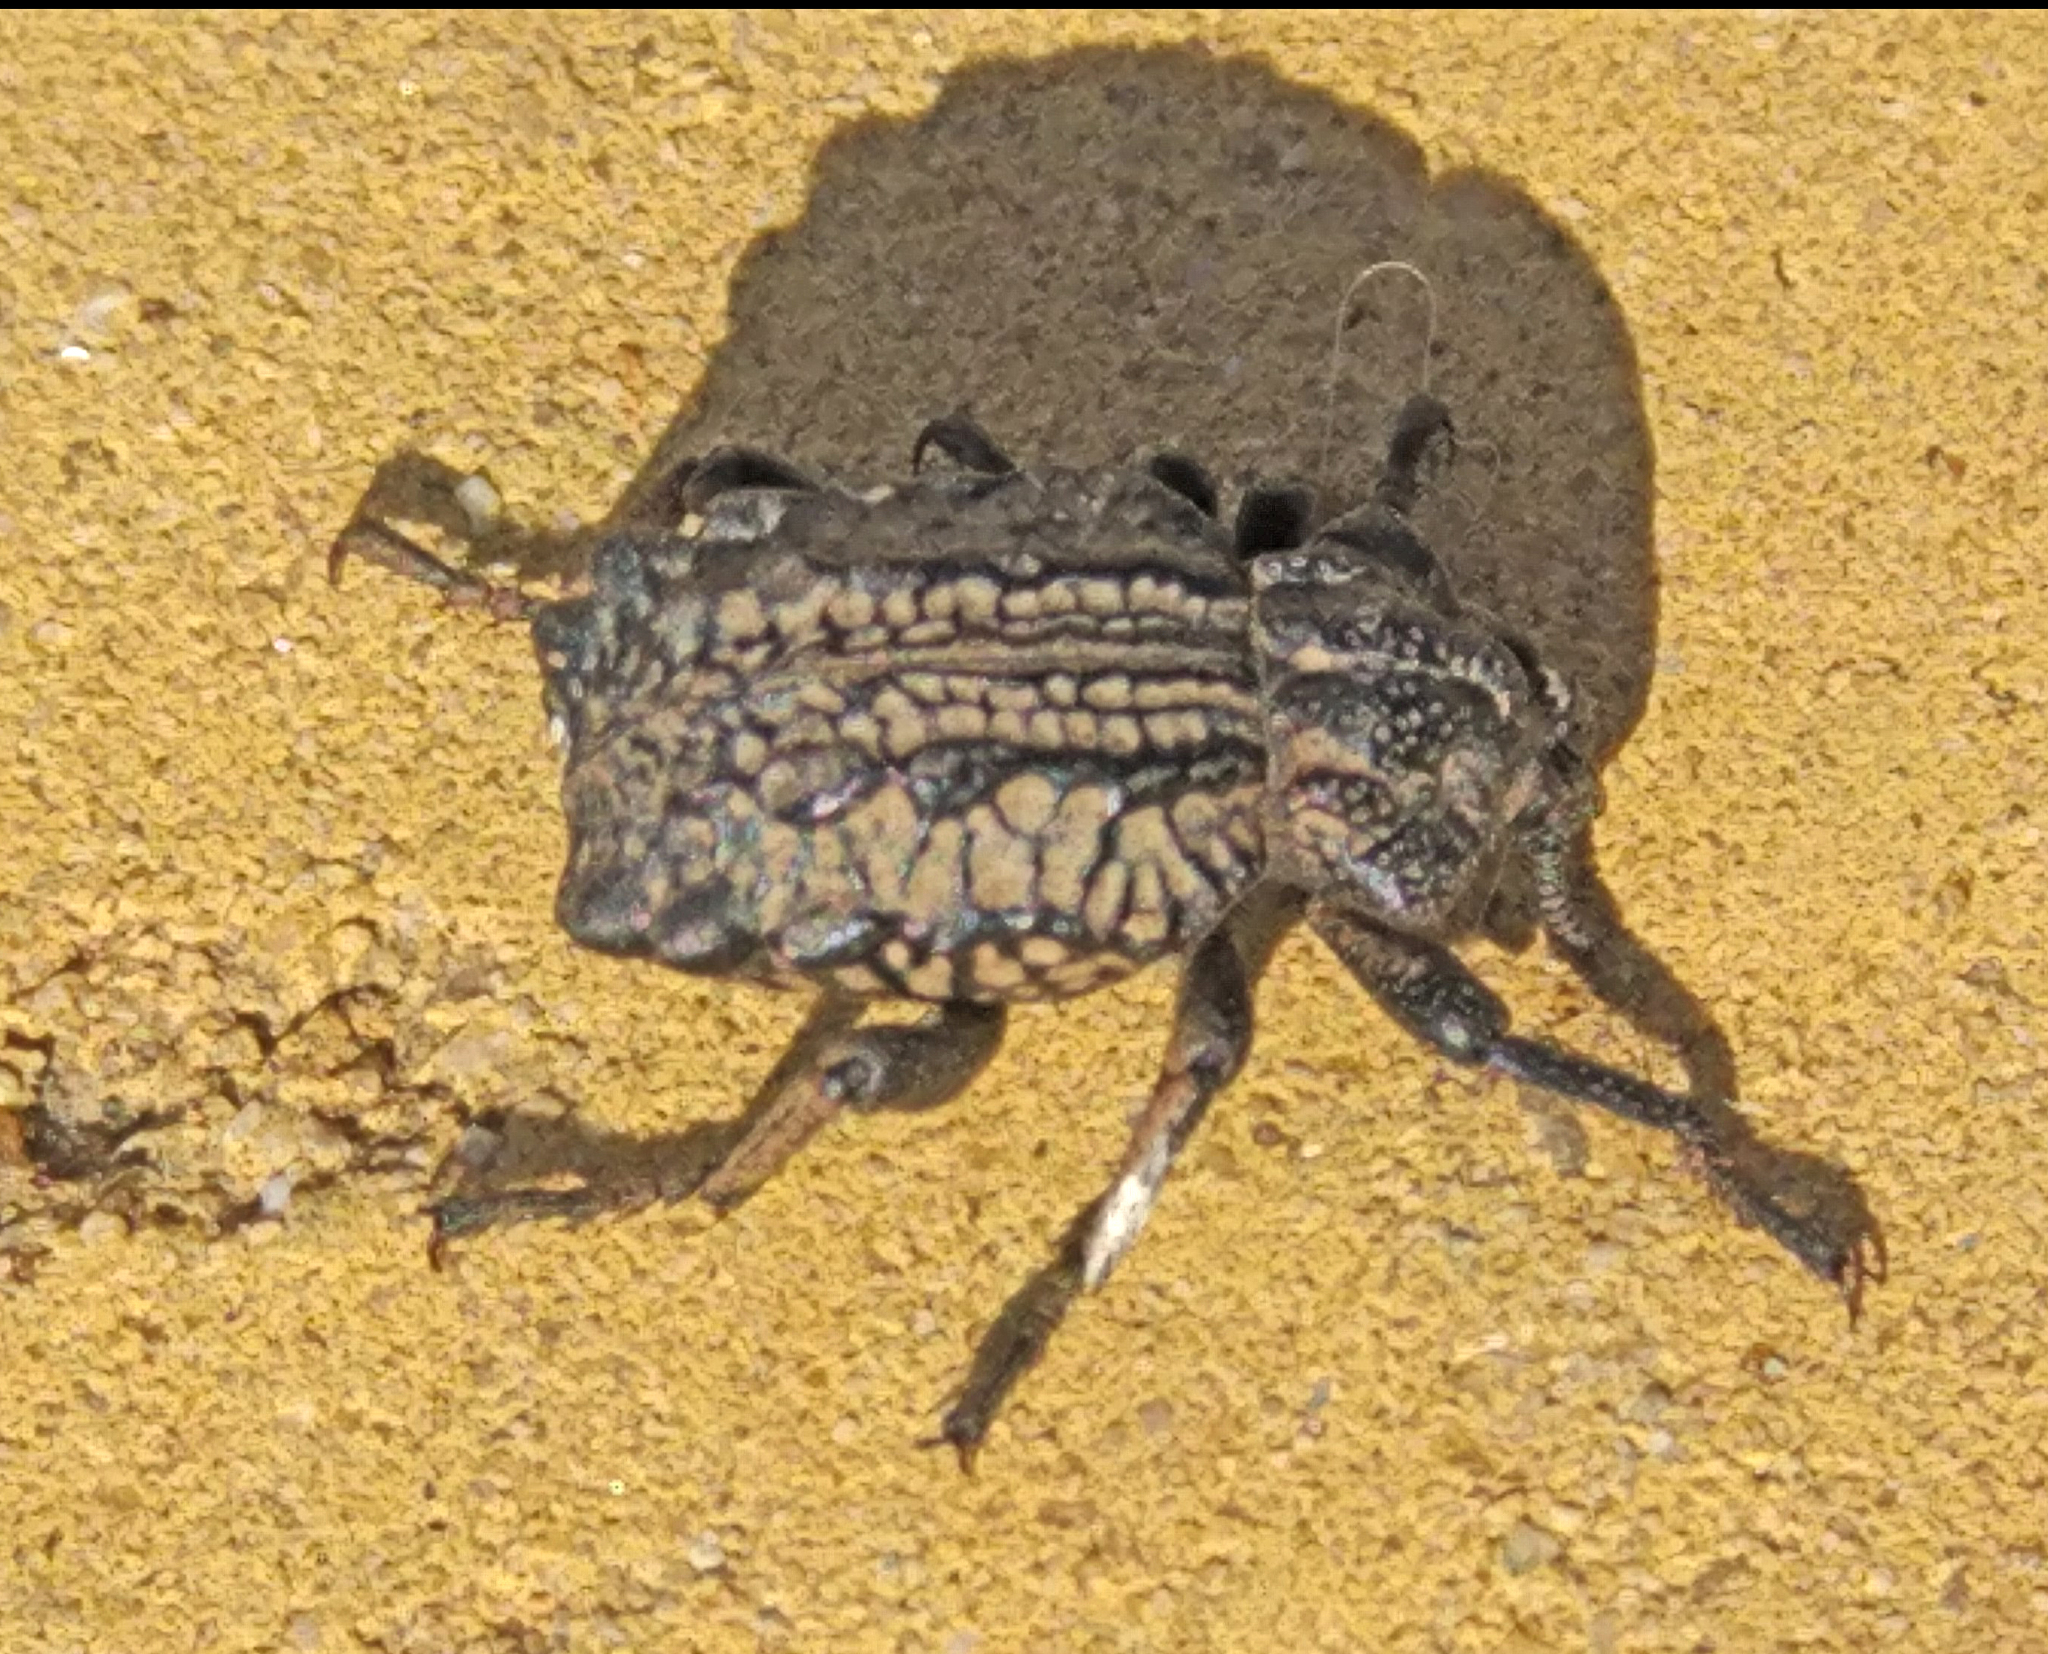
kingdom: Animalia
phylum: Arthropoda
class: Insecta
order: Coleoptera
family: Brachyceridae
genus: Brachycerus
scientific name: Brachycerus undatus
